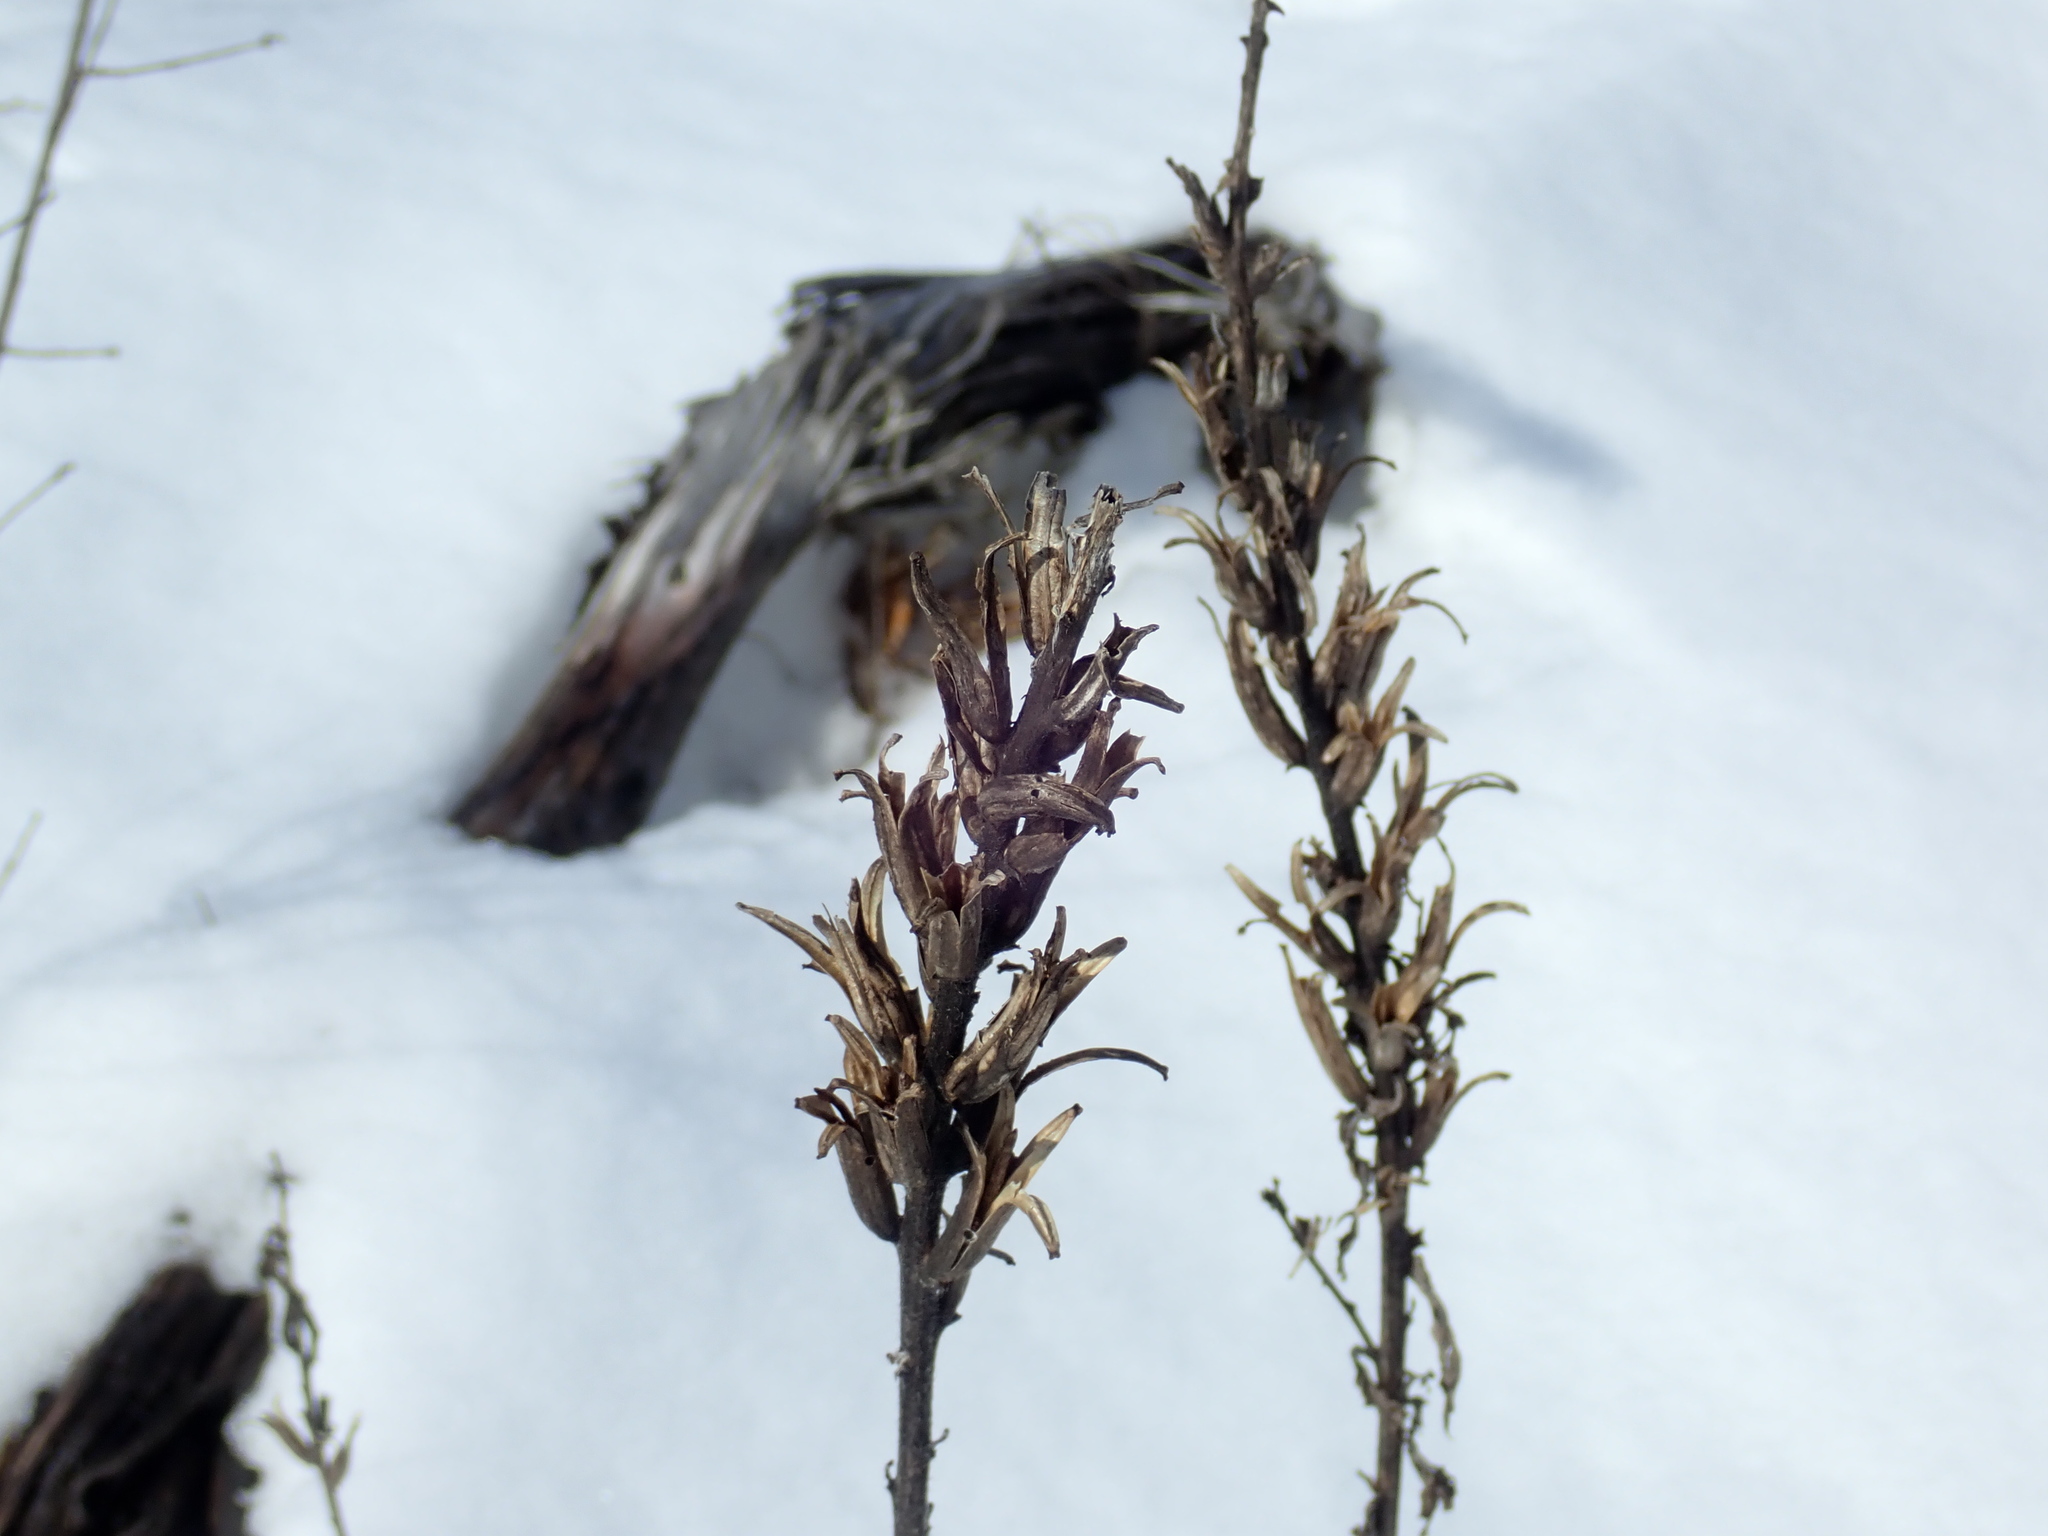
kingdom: Plantae
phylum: Tracheophyta
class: Magnoliopsida
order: Myrtales
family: Onagraceae
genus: Oenothera
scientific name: Oenothera biennis
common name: Common evening-primrose
